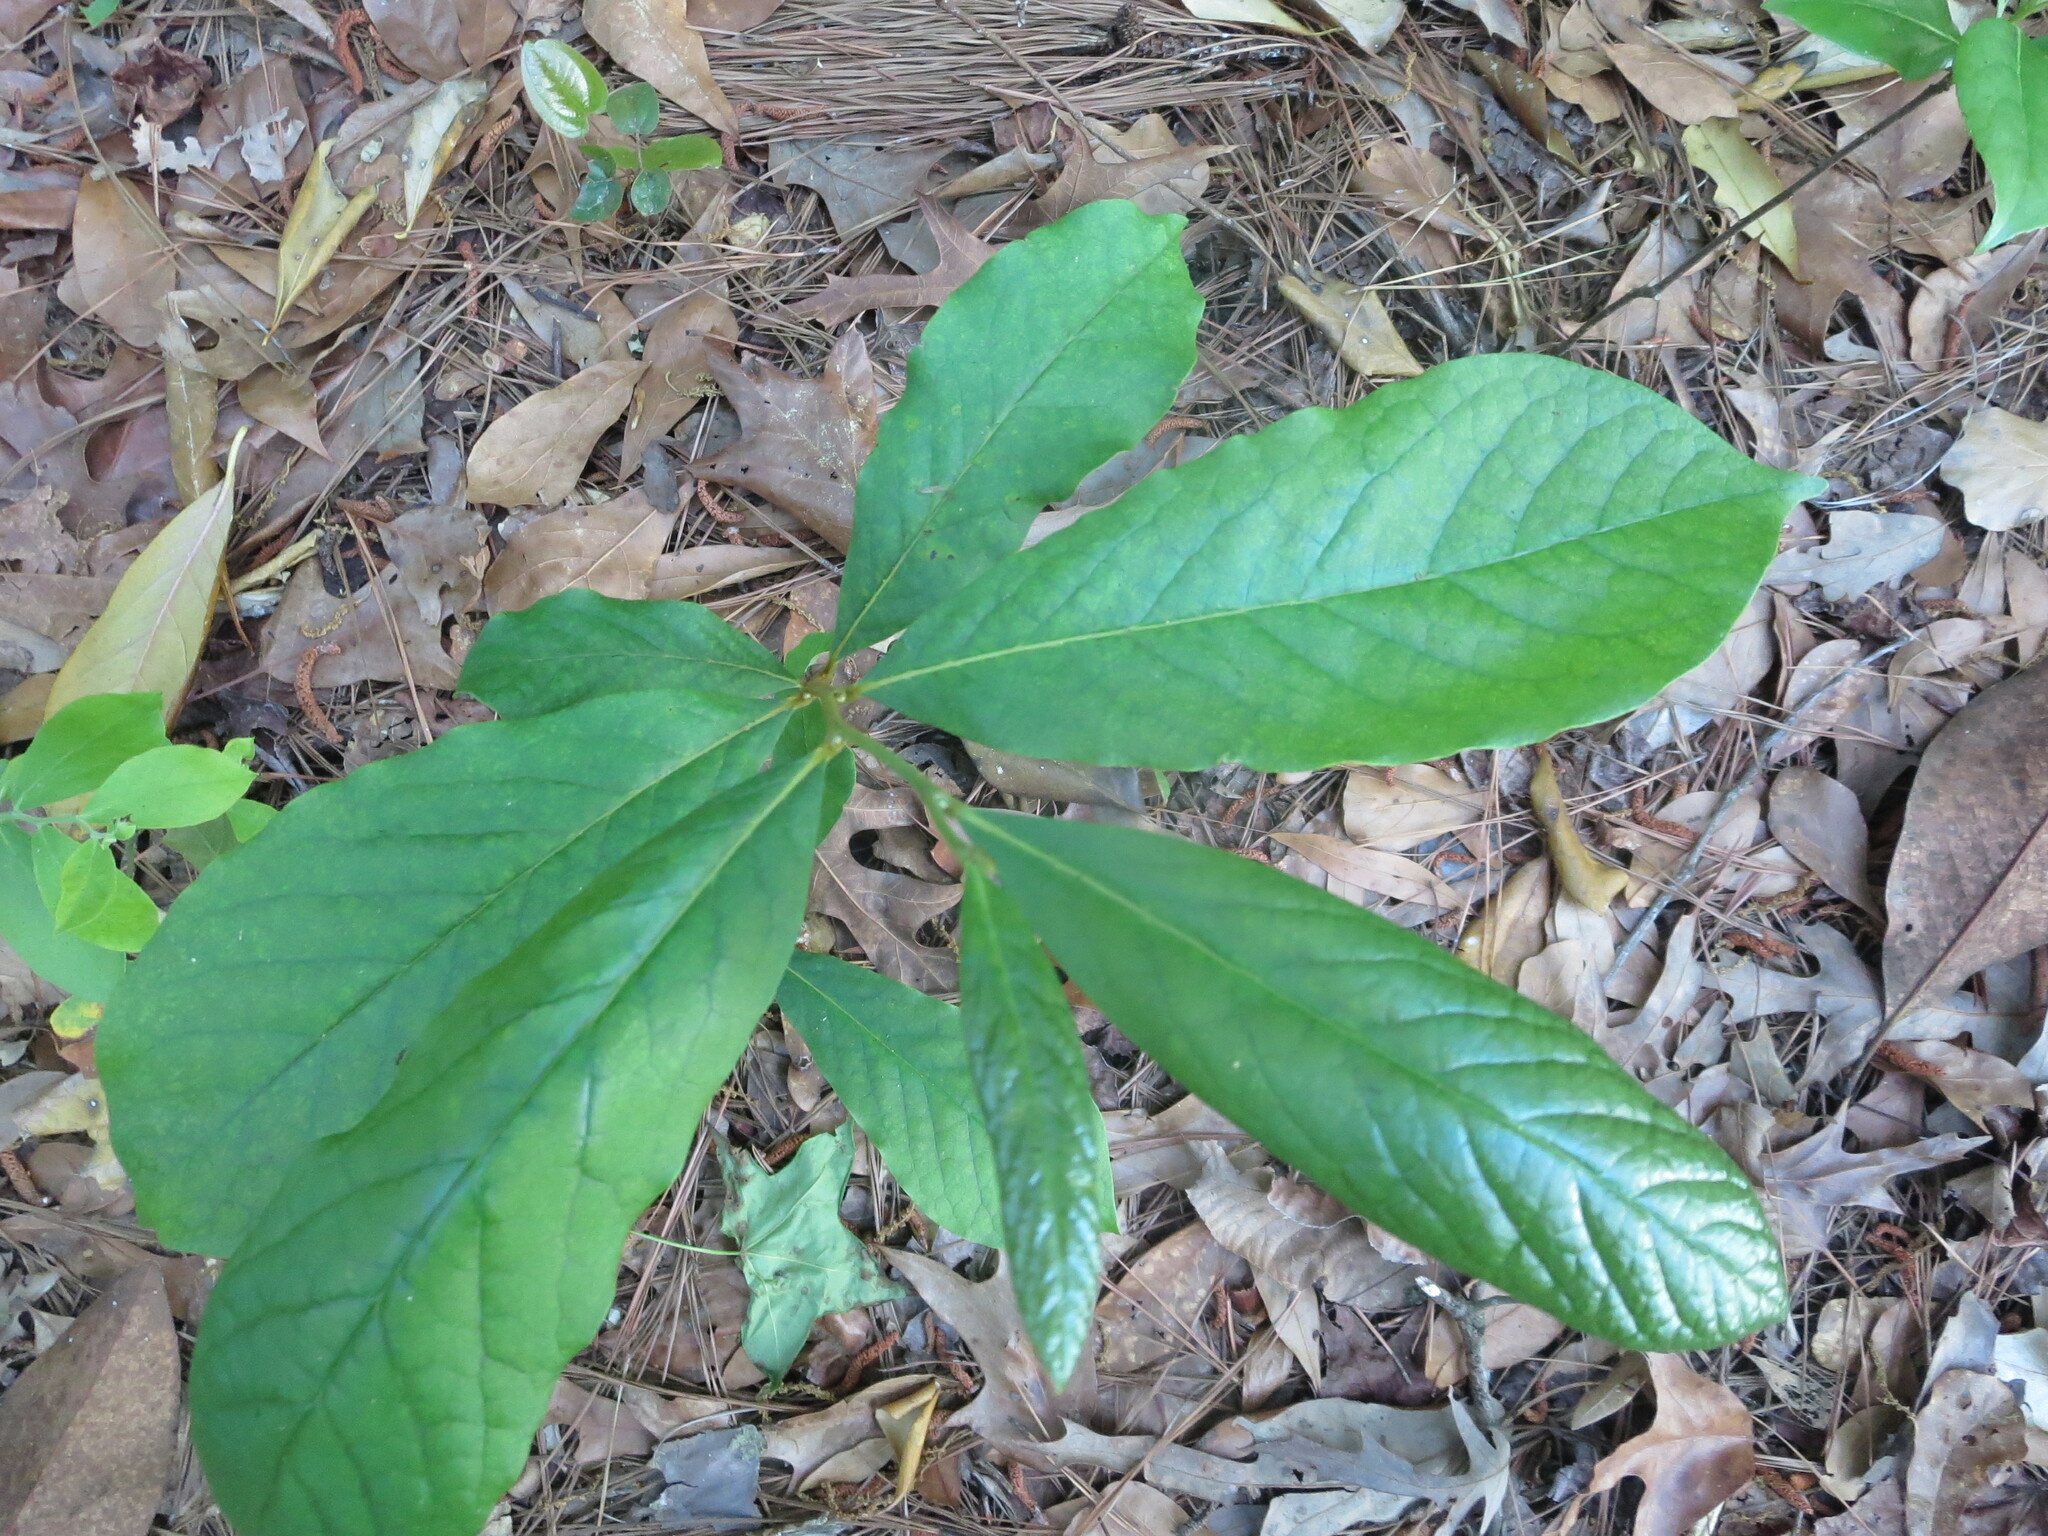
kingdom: Plantae
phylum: Tracheophyta
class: Magnoliopsida
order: Magnoliales
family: Annonaceae
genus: Asimina
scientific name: Asimina parviflora
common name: Dwarf pawpaw
